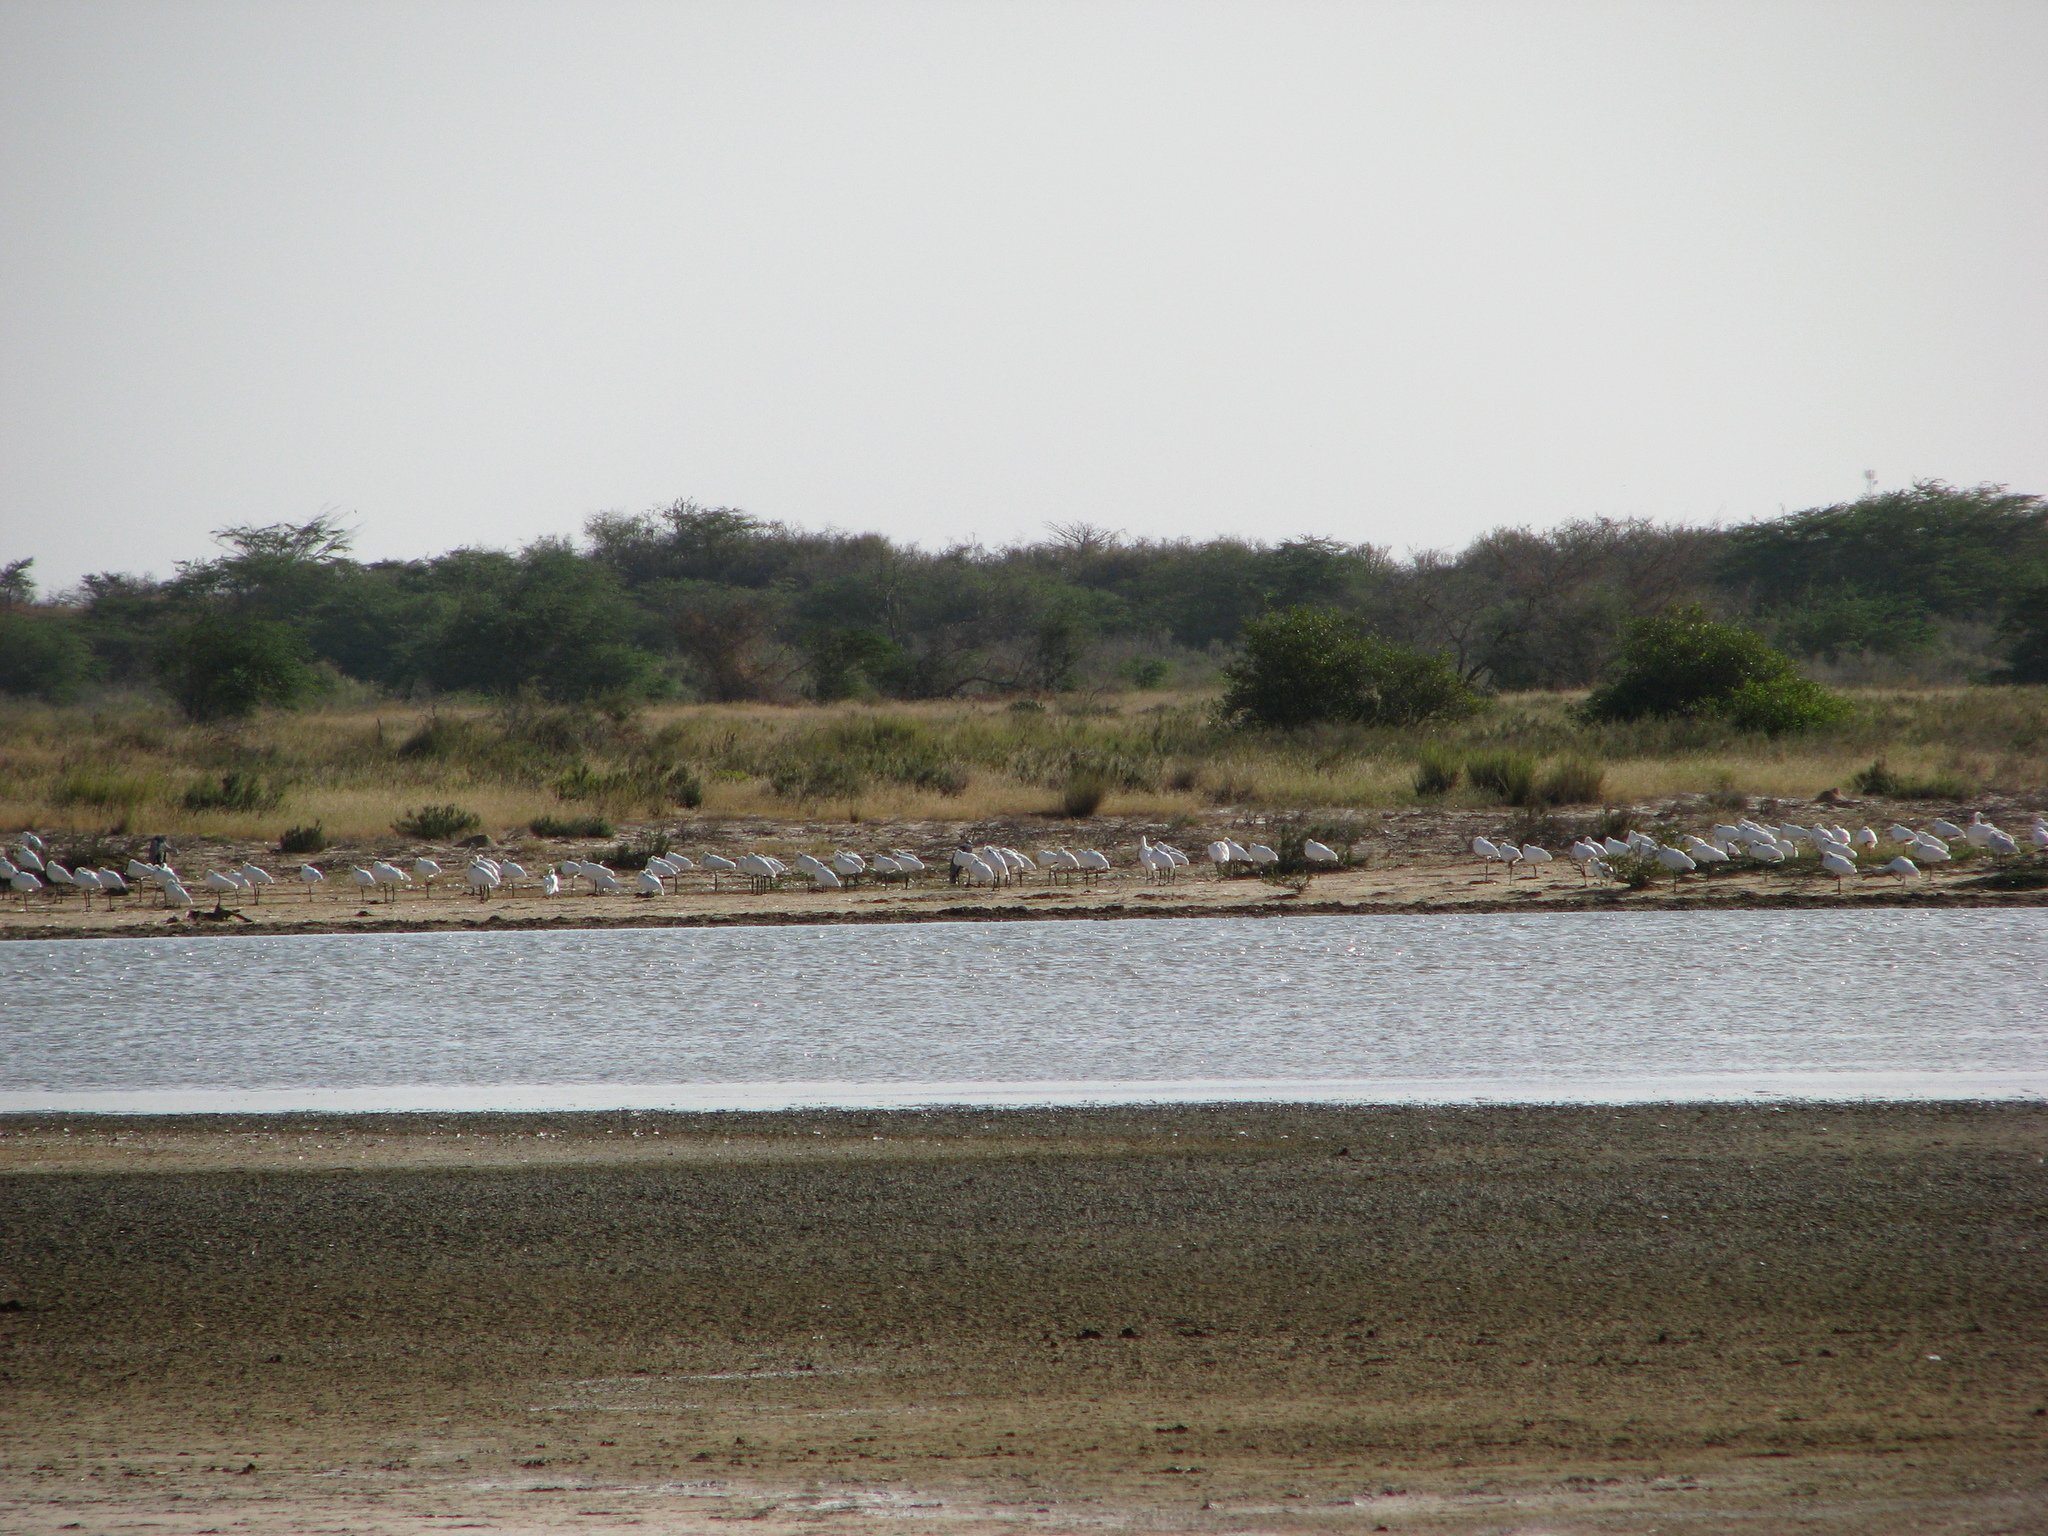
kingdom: Animalia
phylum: Chordata
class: Aves
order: Pelecaniformes
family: Threskiornithidae
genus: Platalea
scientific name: Platalea leucorodia
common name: Eurasian spoonbill
